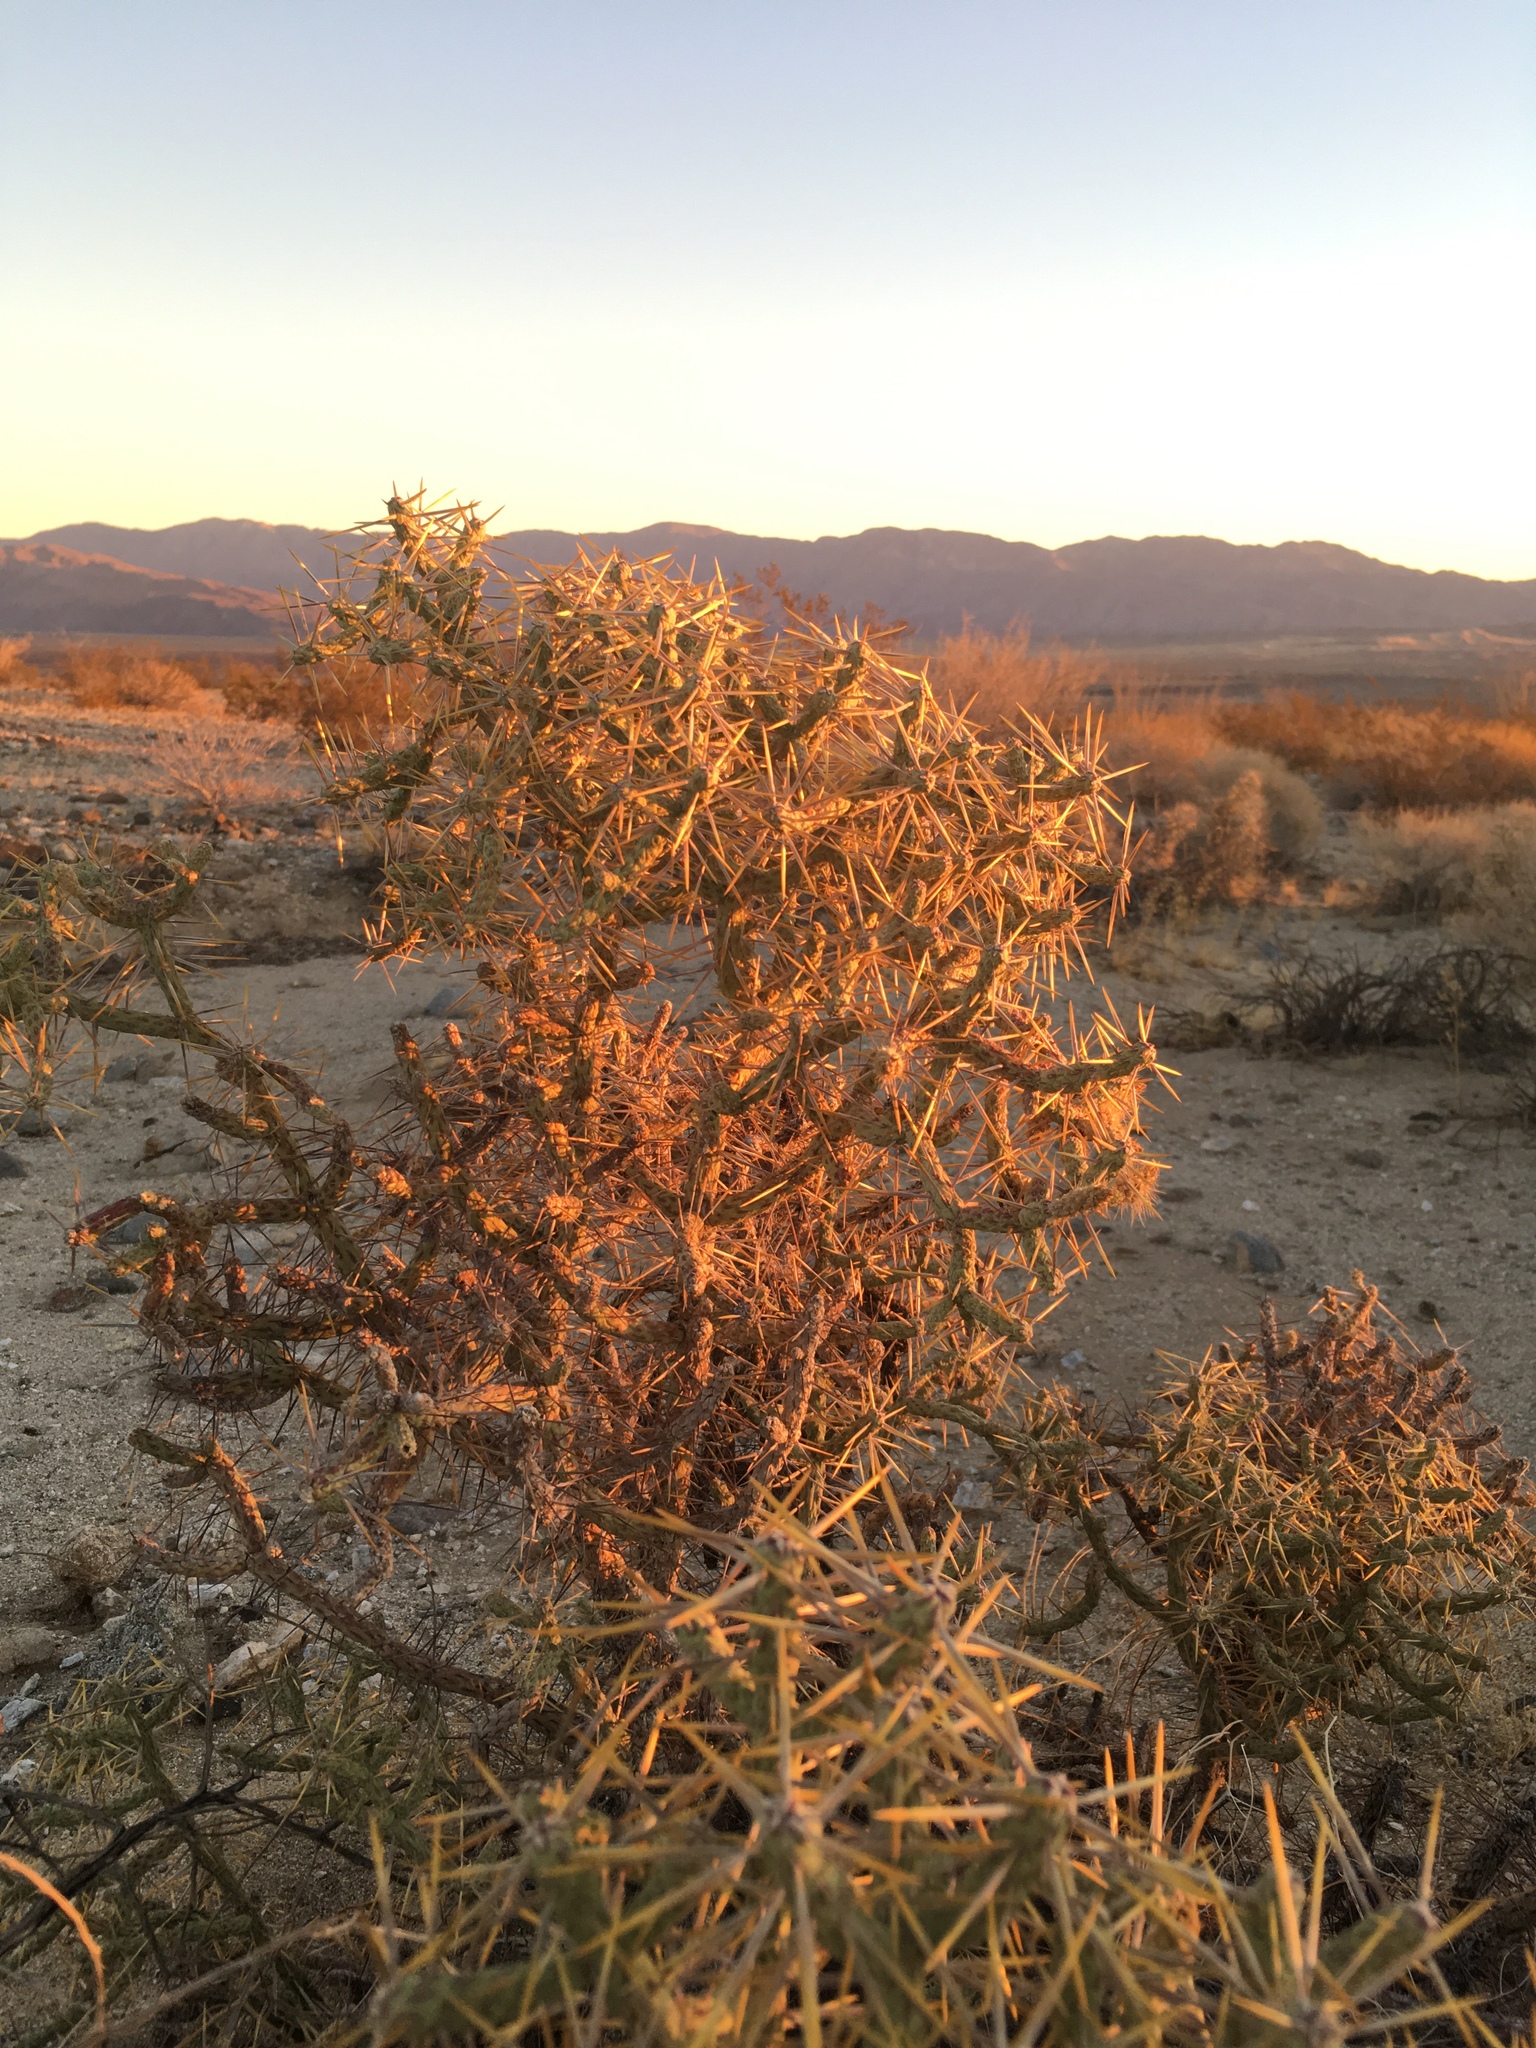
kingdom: Plantae
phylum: Tracheophyta
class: Magnoliopsida
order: Caryophyllales
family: Cactaceae
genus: Cylindropuntia
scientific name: Cylindropuntia ramosissima
